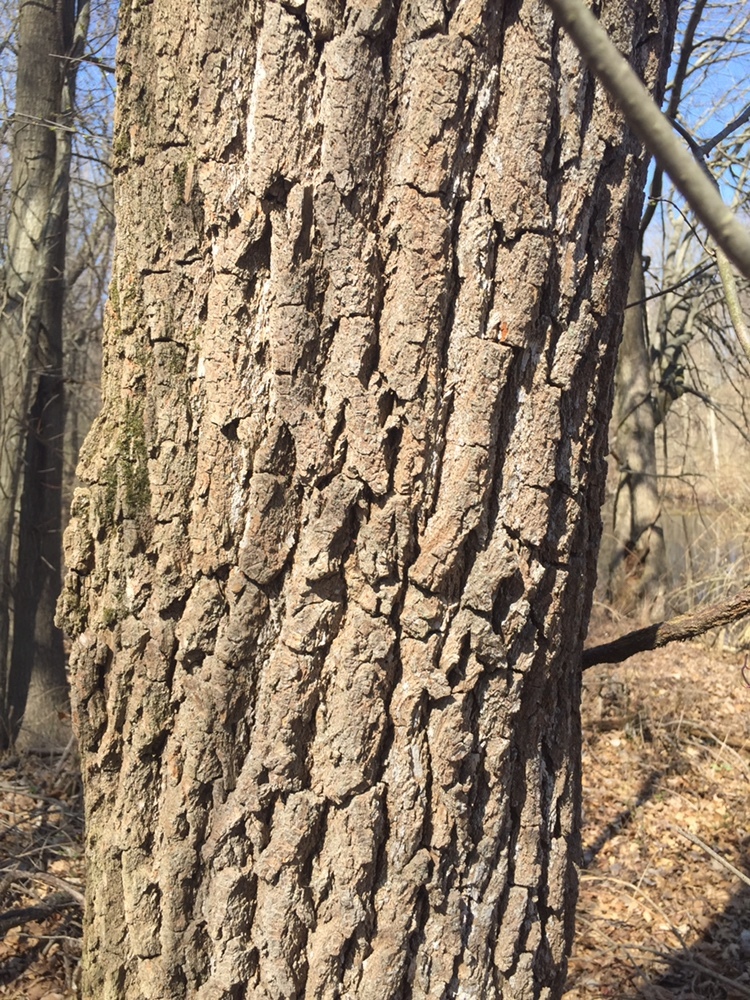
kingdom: Plantae
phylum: Tracheophyta
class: Magnoliopsida
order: Laurales
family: Lauraceae
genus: Sassafras
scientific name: Sassafras albidum
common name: Sassafras
